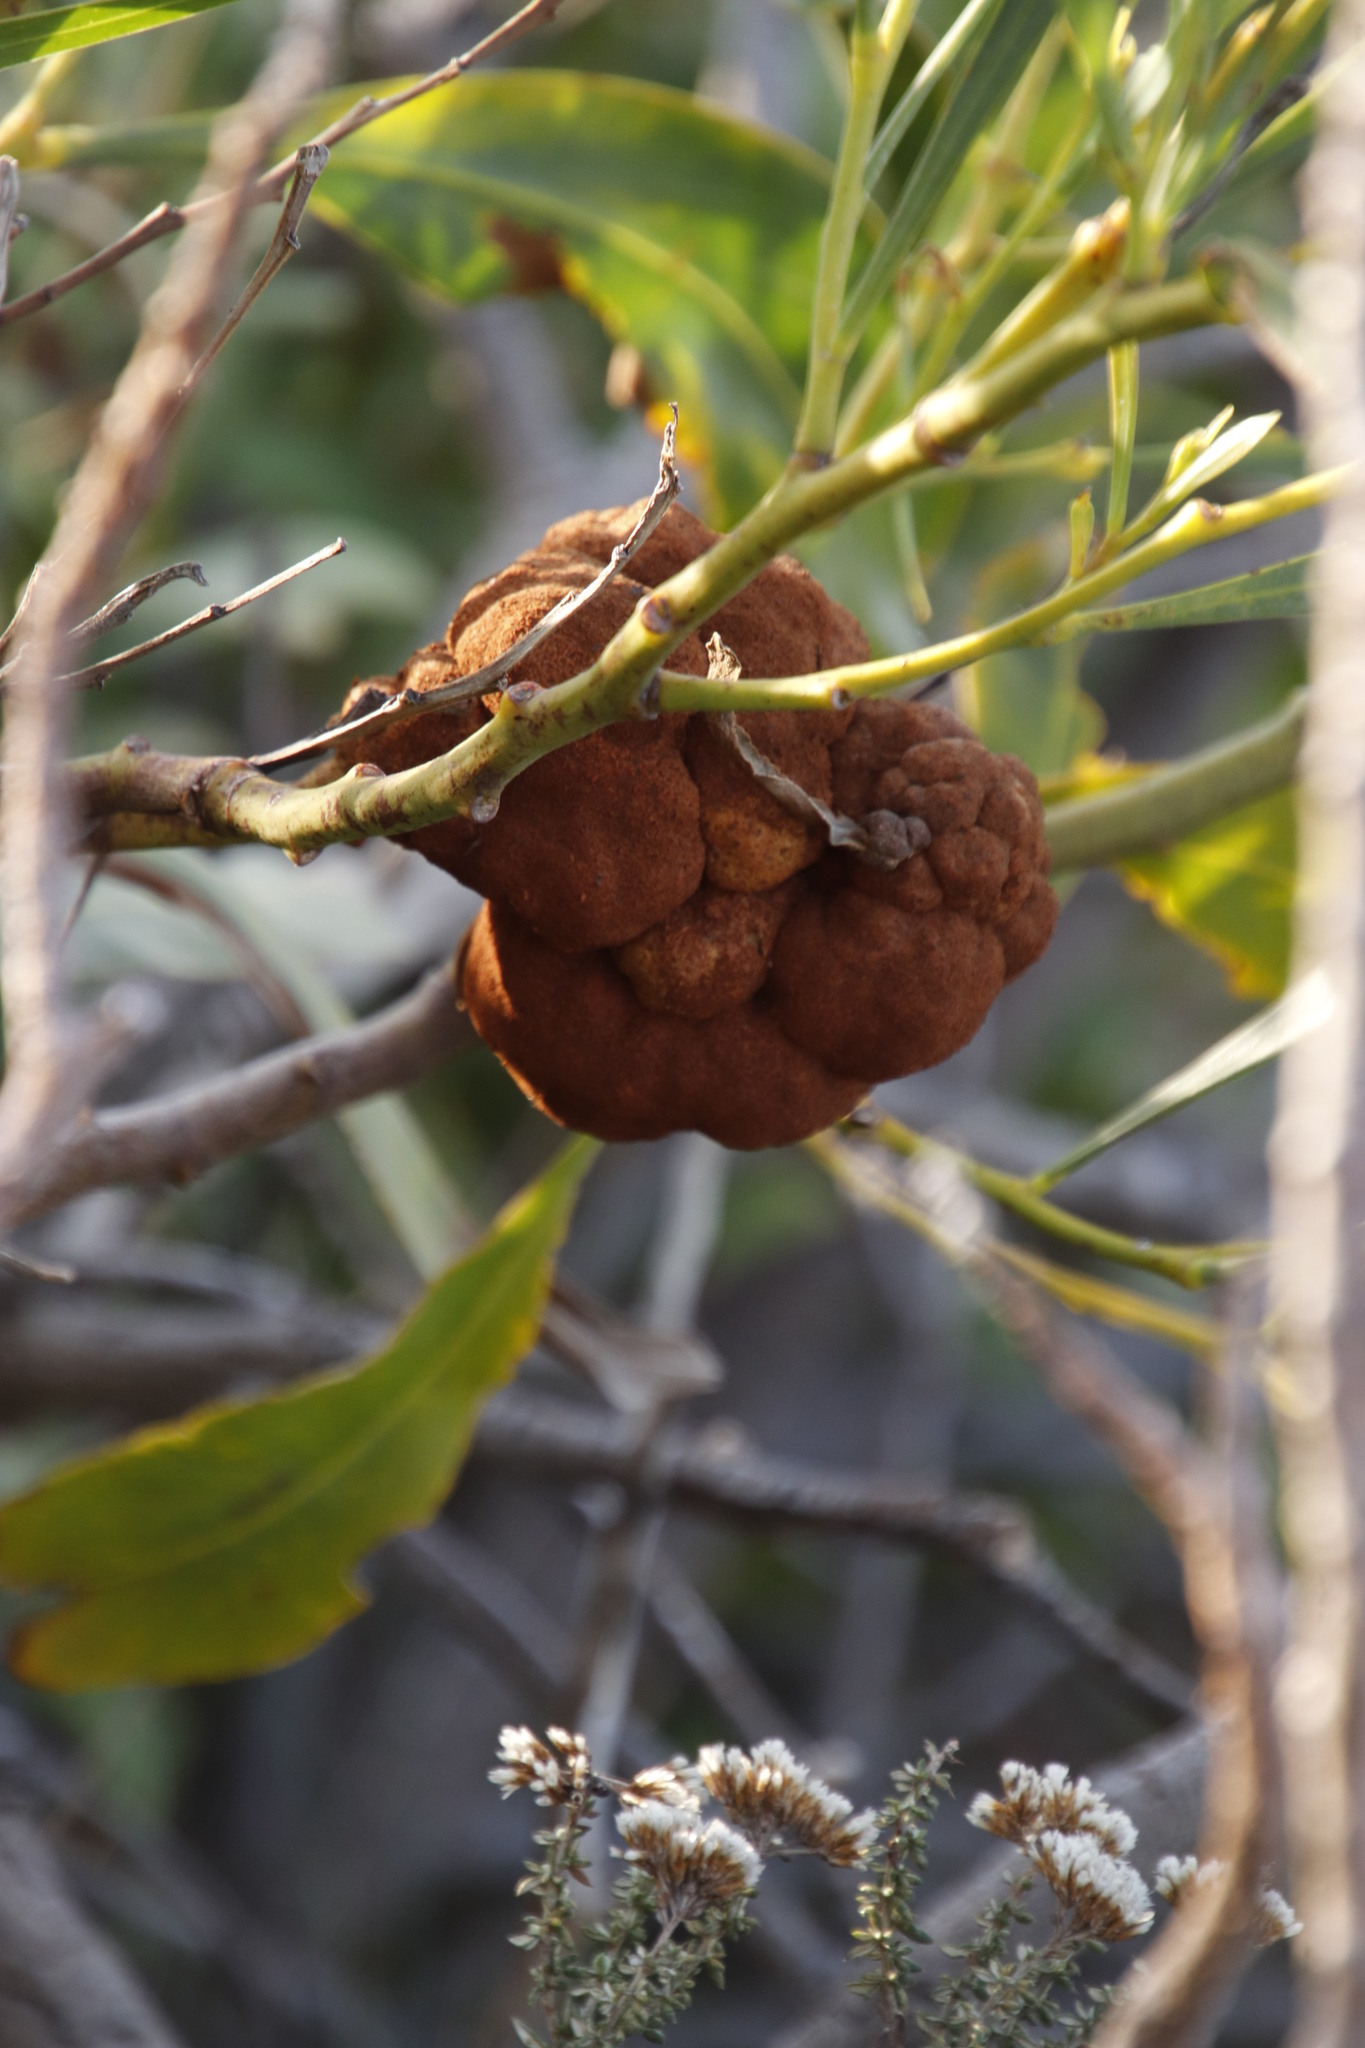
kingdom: Fungi
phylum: Basidiomycota
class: Pucciniomycetes
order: Pucciniales
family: Uromycladiaceae
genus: Uromycladium
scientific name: Uromycladium morrisii
